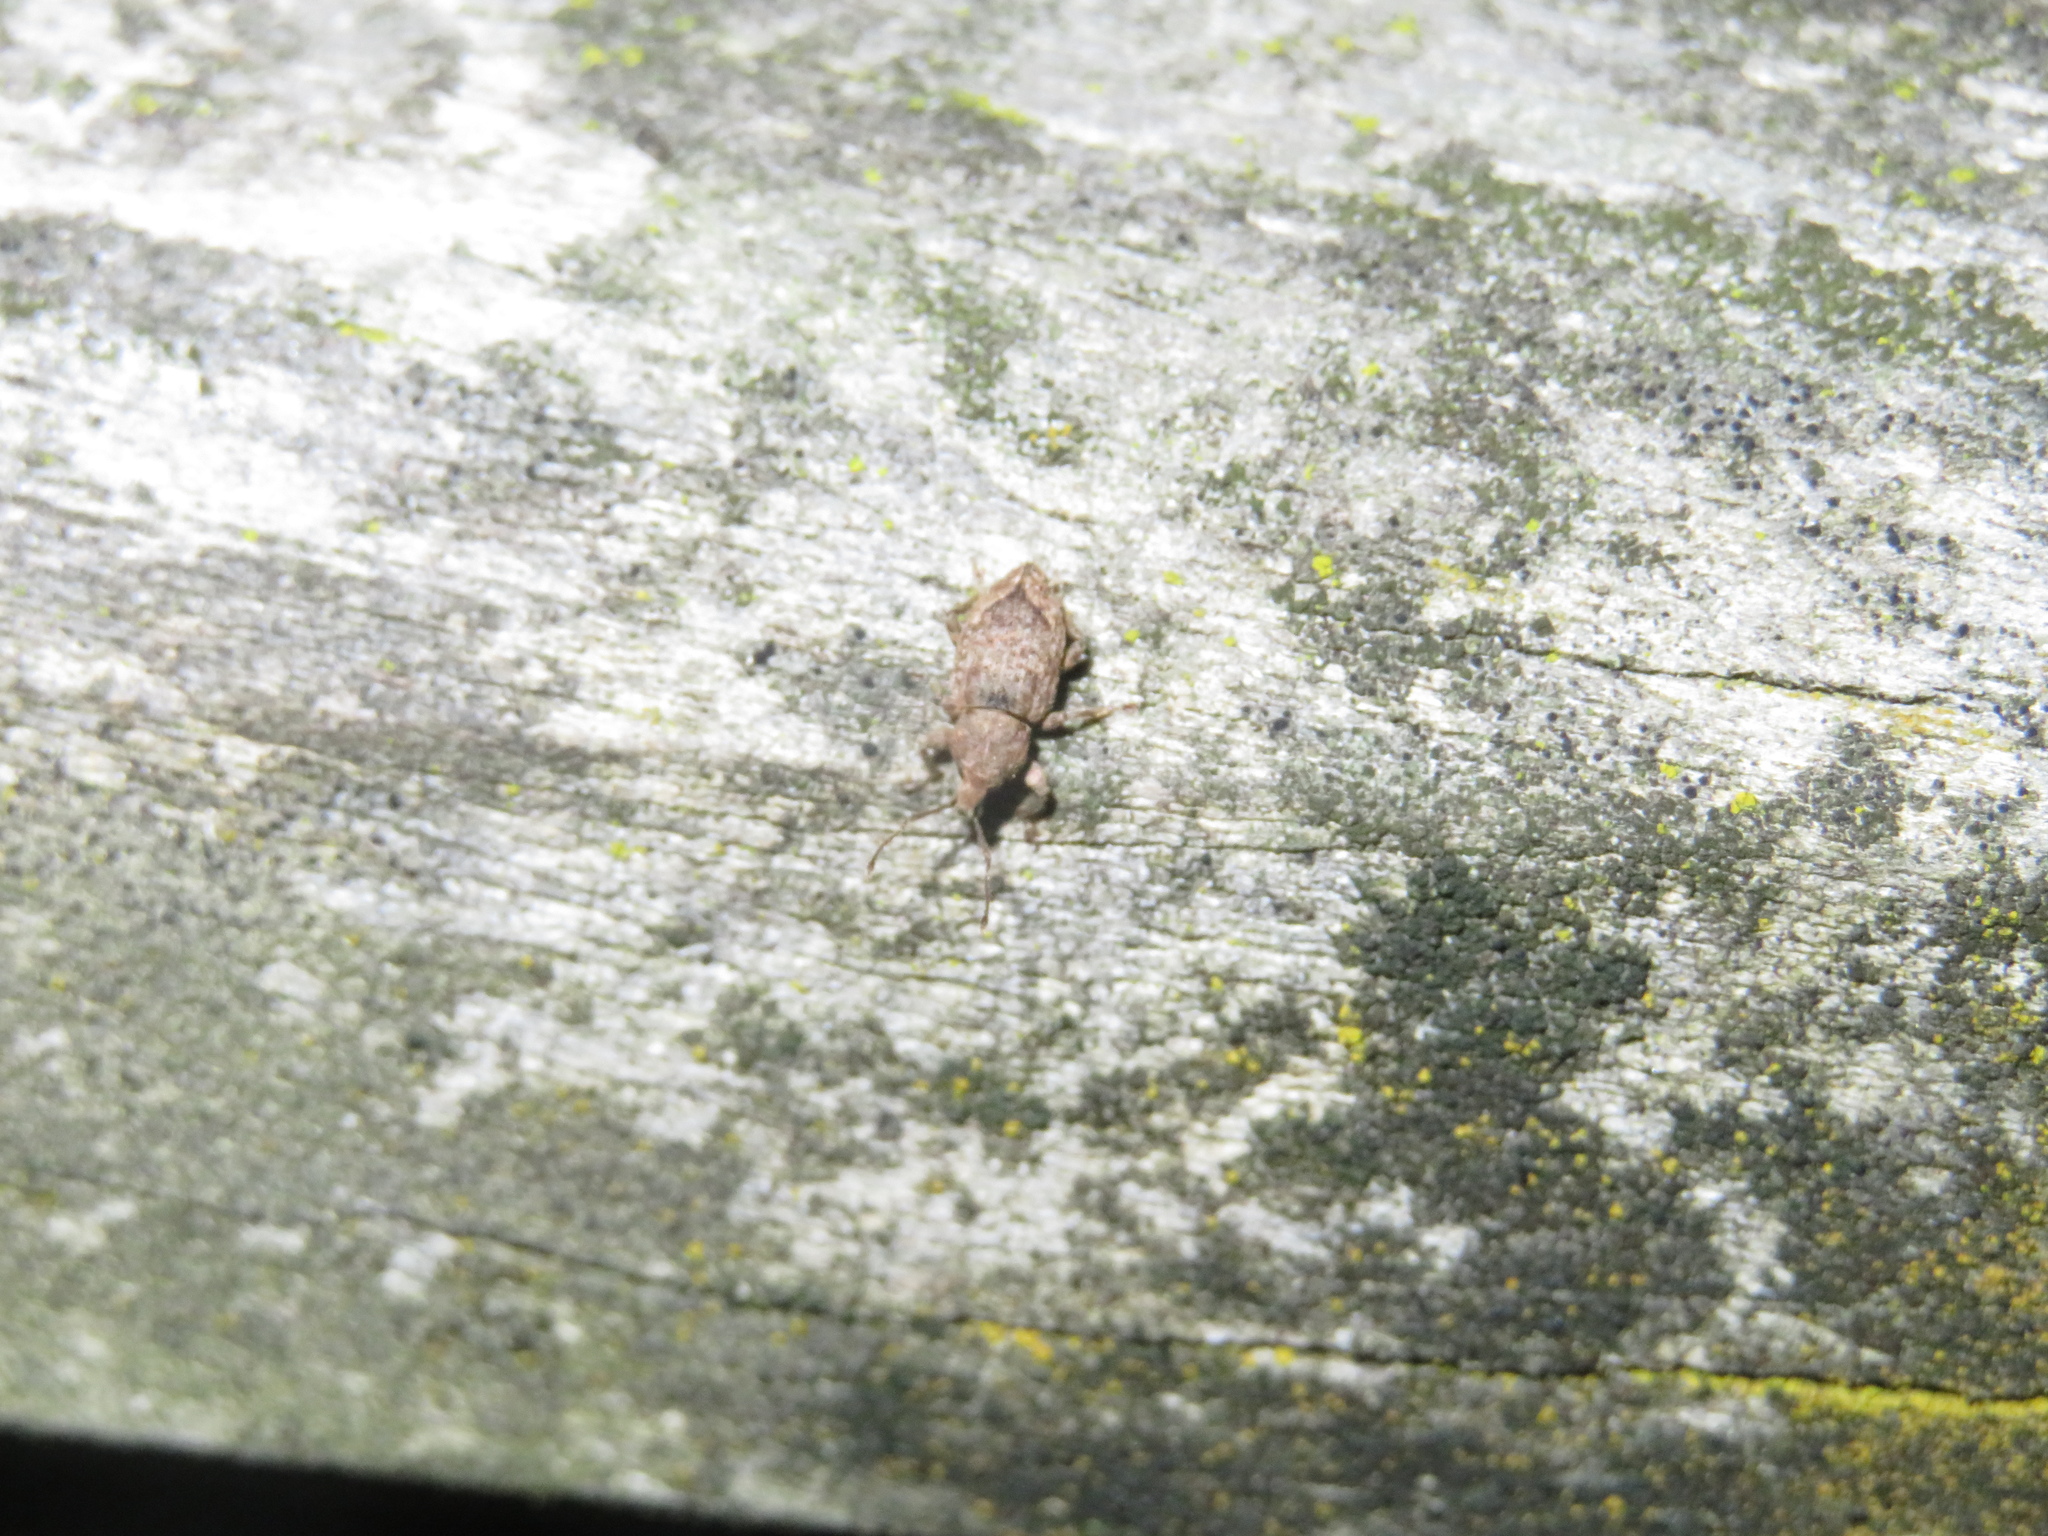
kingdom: Animalia
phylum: Arthropoda
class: Insecta
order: Coleoptera
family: Curculionidae
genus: Chalepistes
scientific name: Chalepistes compressus
